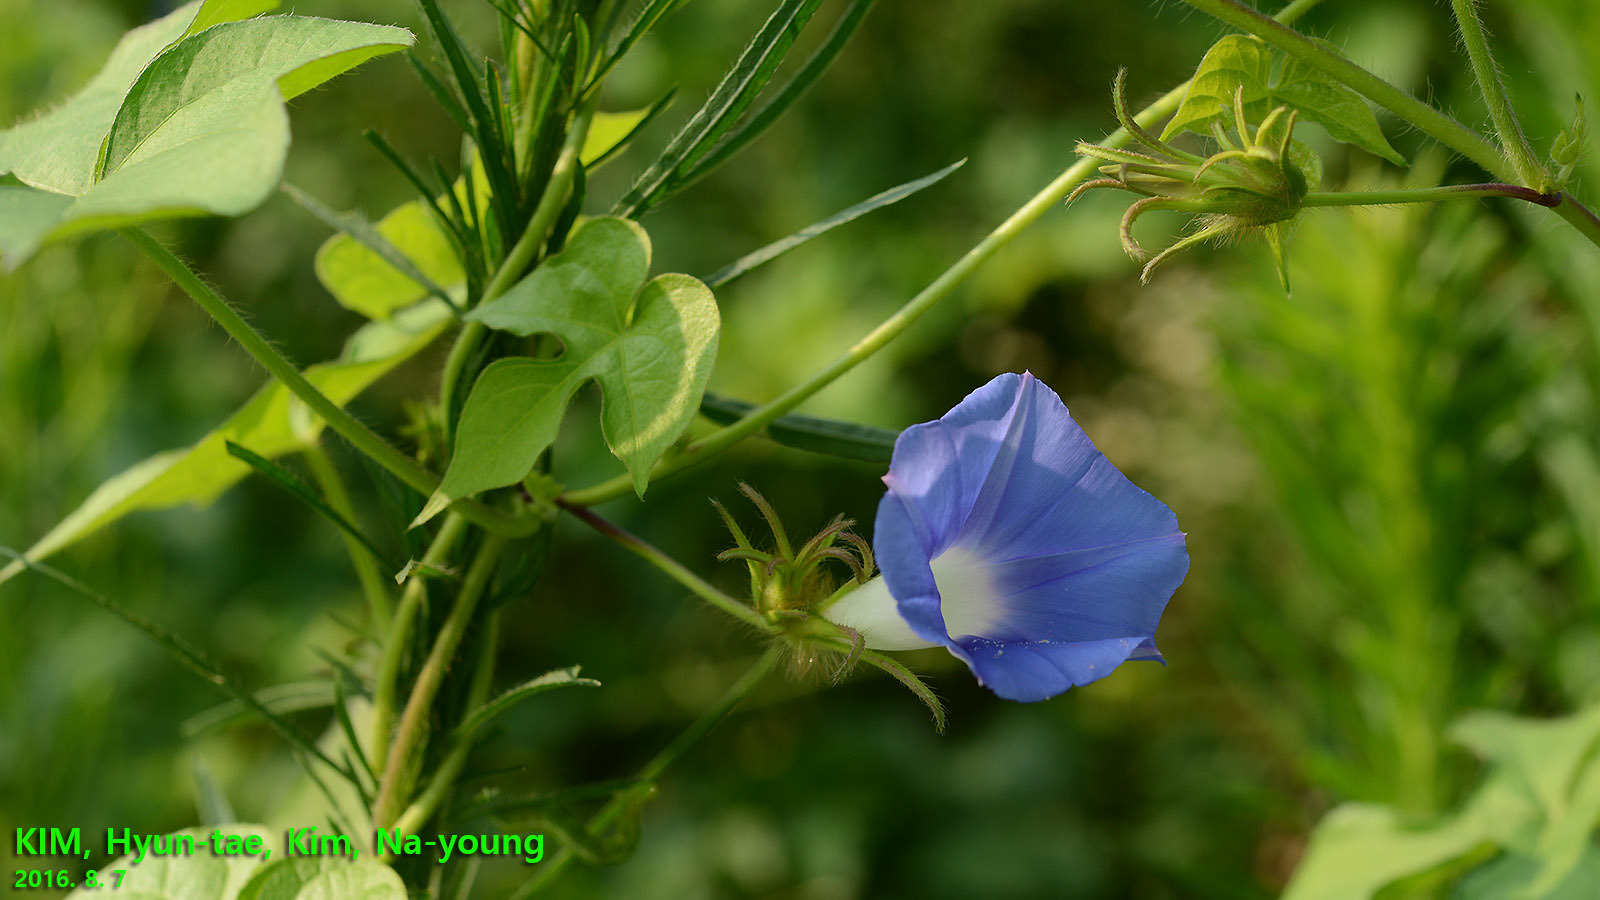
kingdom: Plantae
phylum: Tracheophyta
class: Magnoliopsida
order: Solanales
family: Convolvulaceae
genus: Ipomoea
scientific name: Ipomoea hederacea
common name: Ivy-leaved morning-glory
